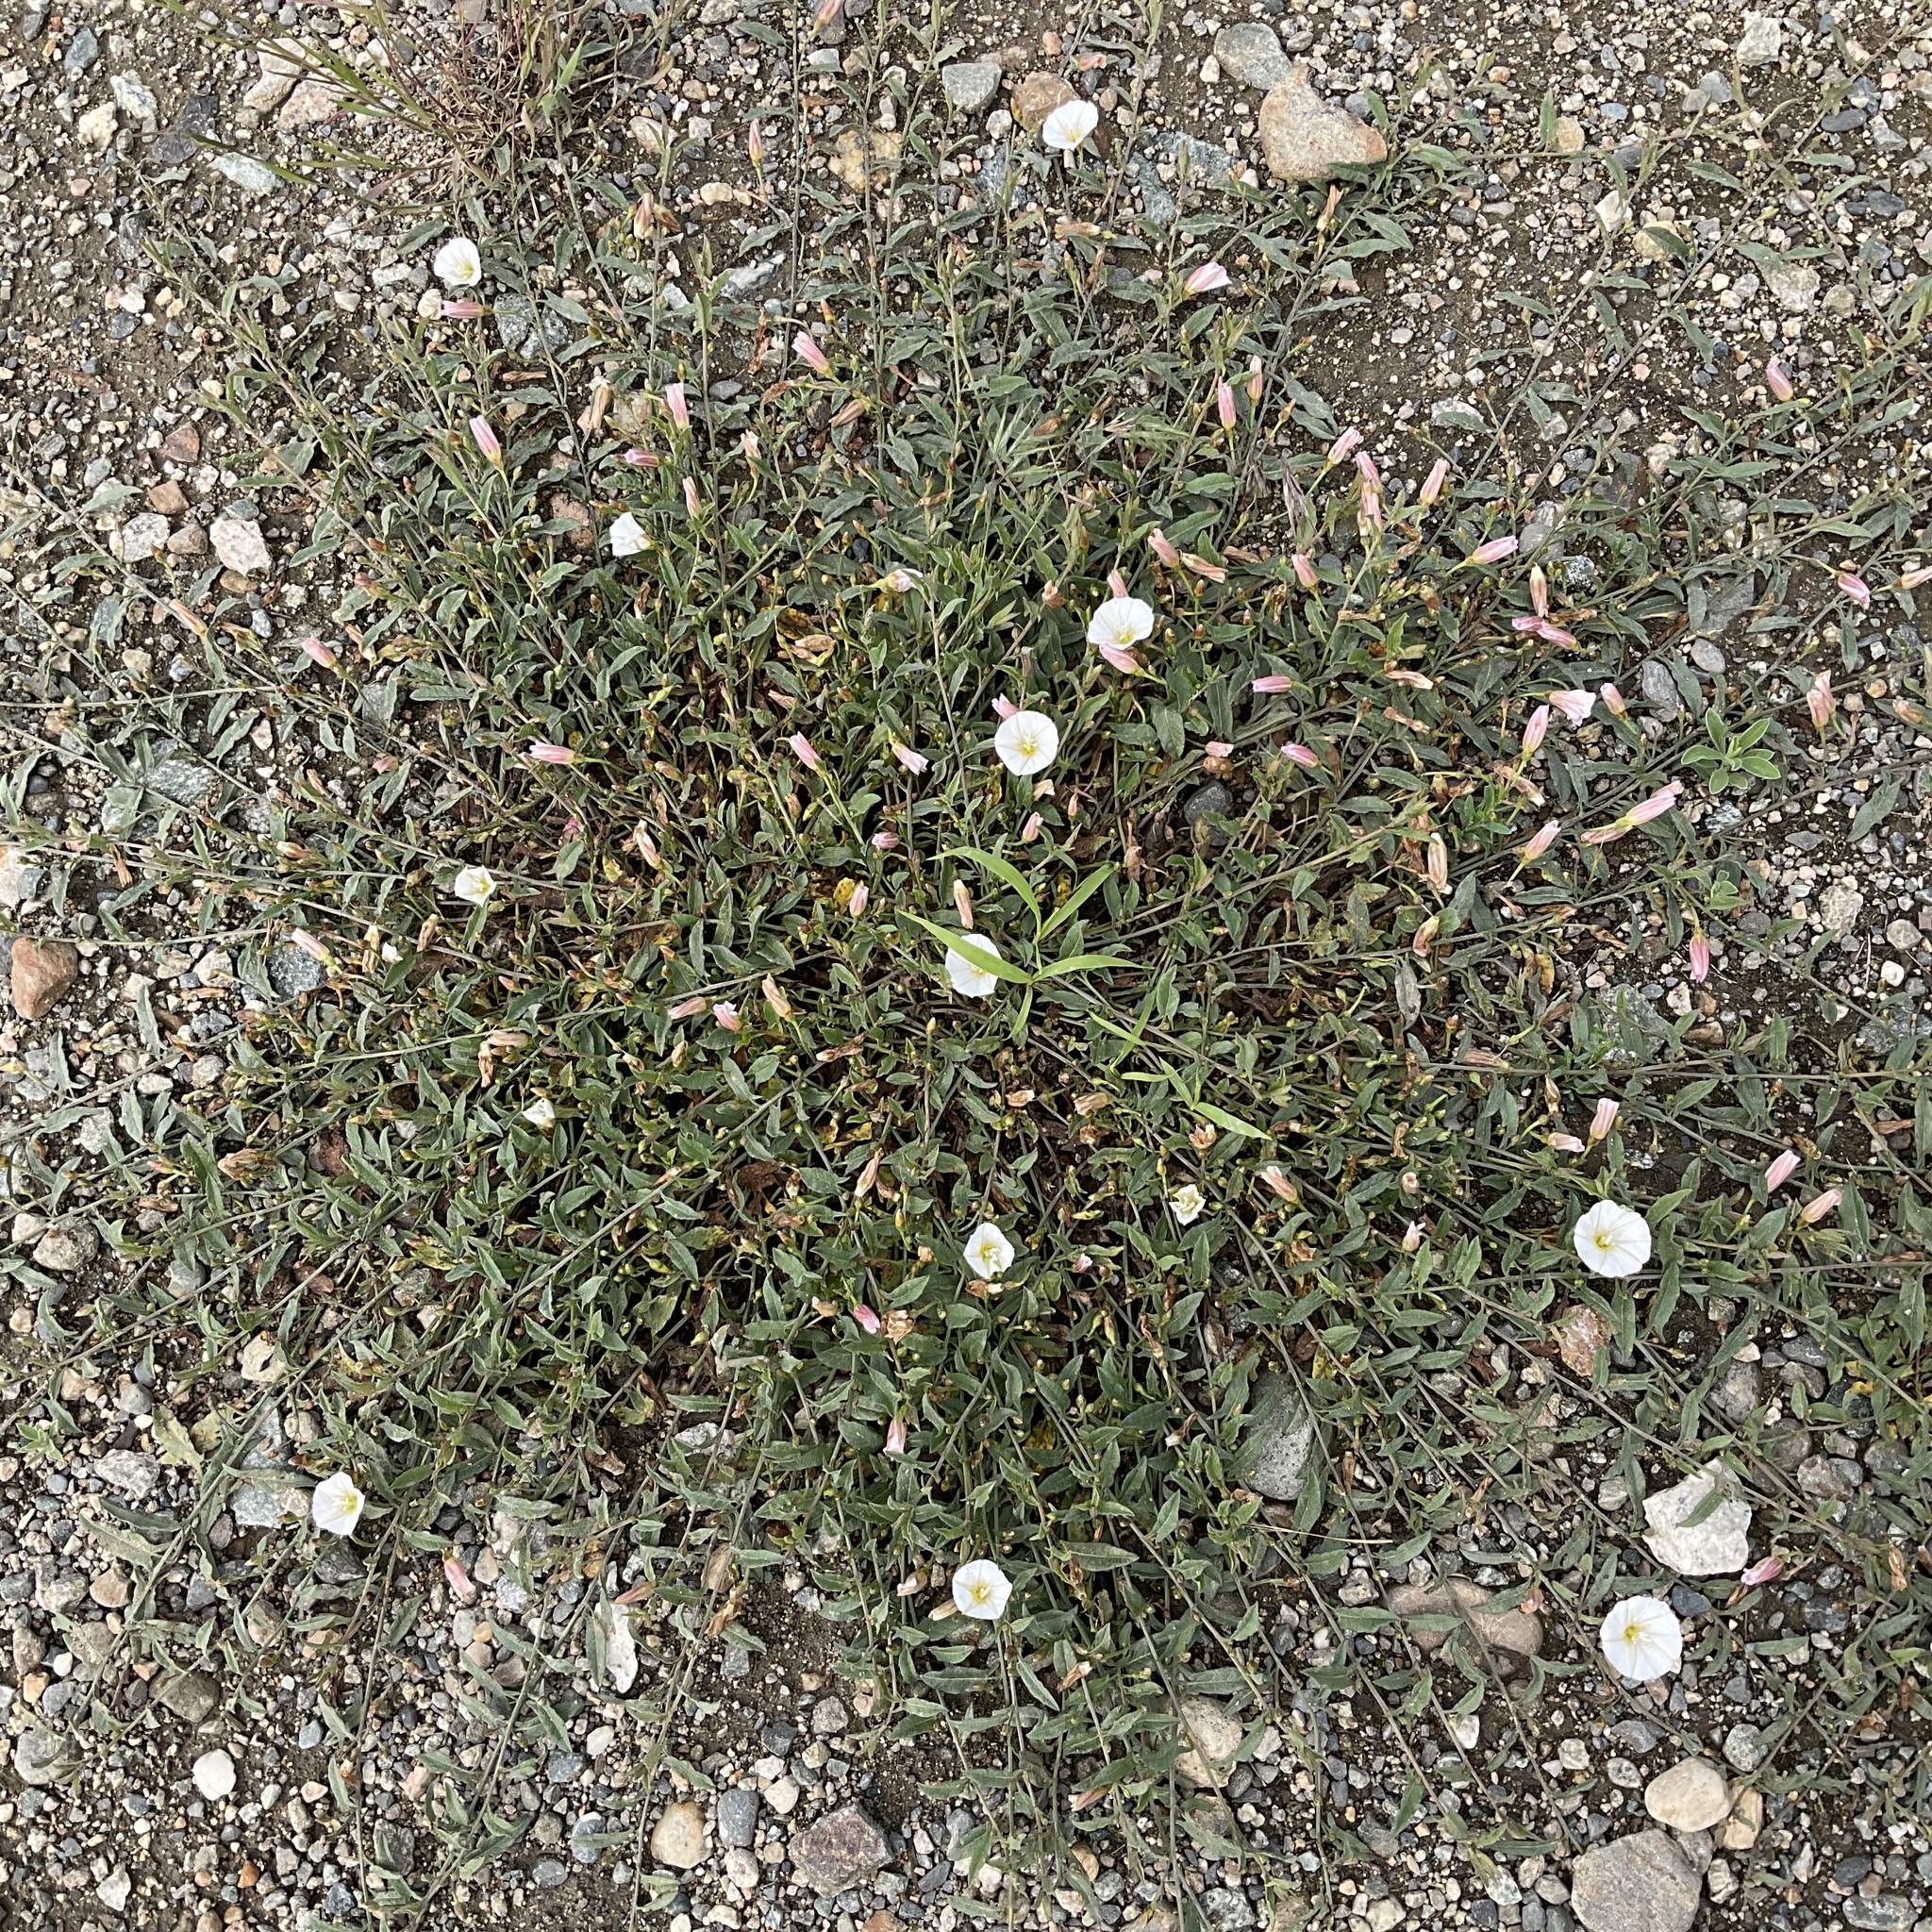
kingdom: Plantae
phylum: Tracheophyta
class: Magnoliopsida
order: Solanales
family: Convolvulaceae
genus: Convolvulus
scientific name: Convolvulus arvensis
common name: Field bindweed
